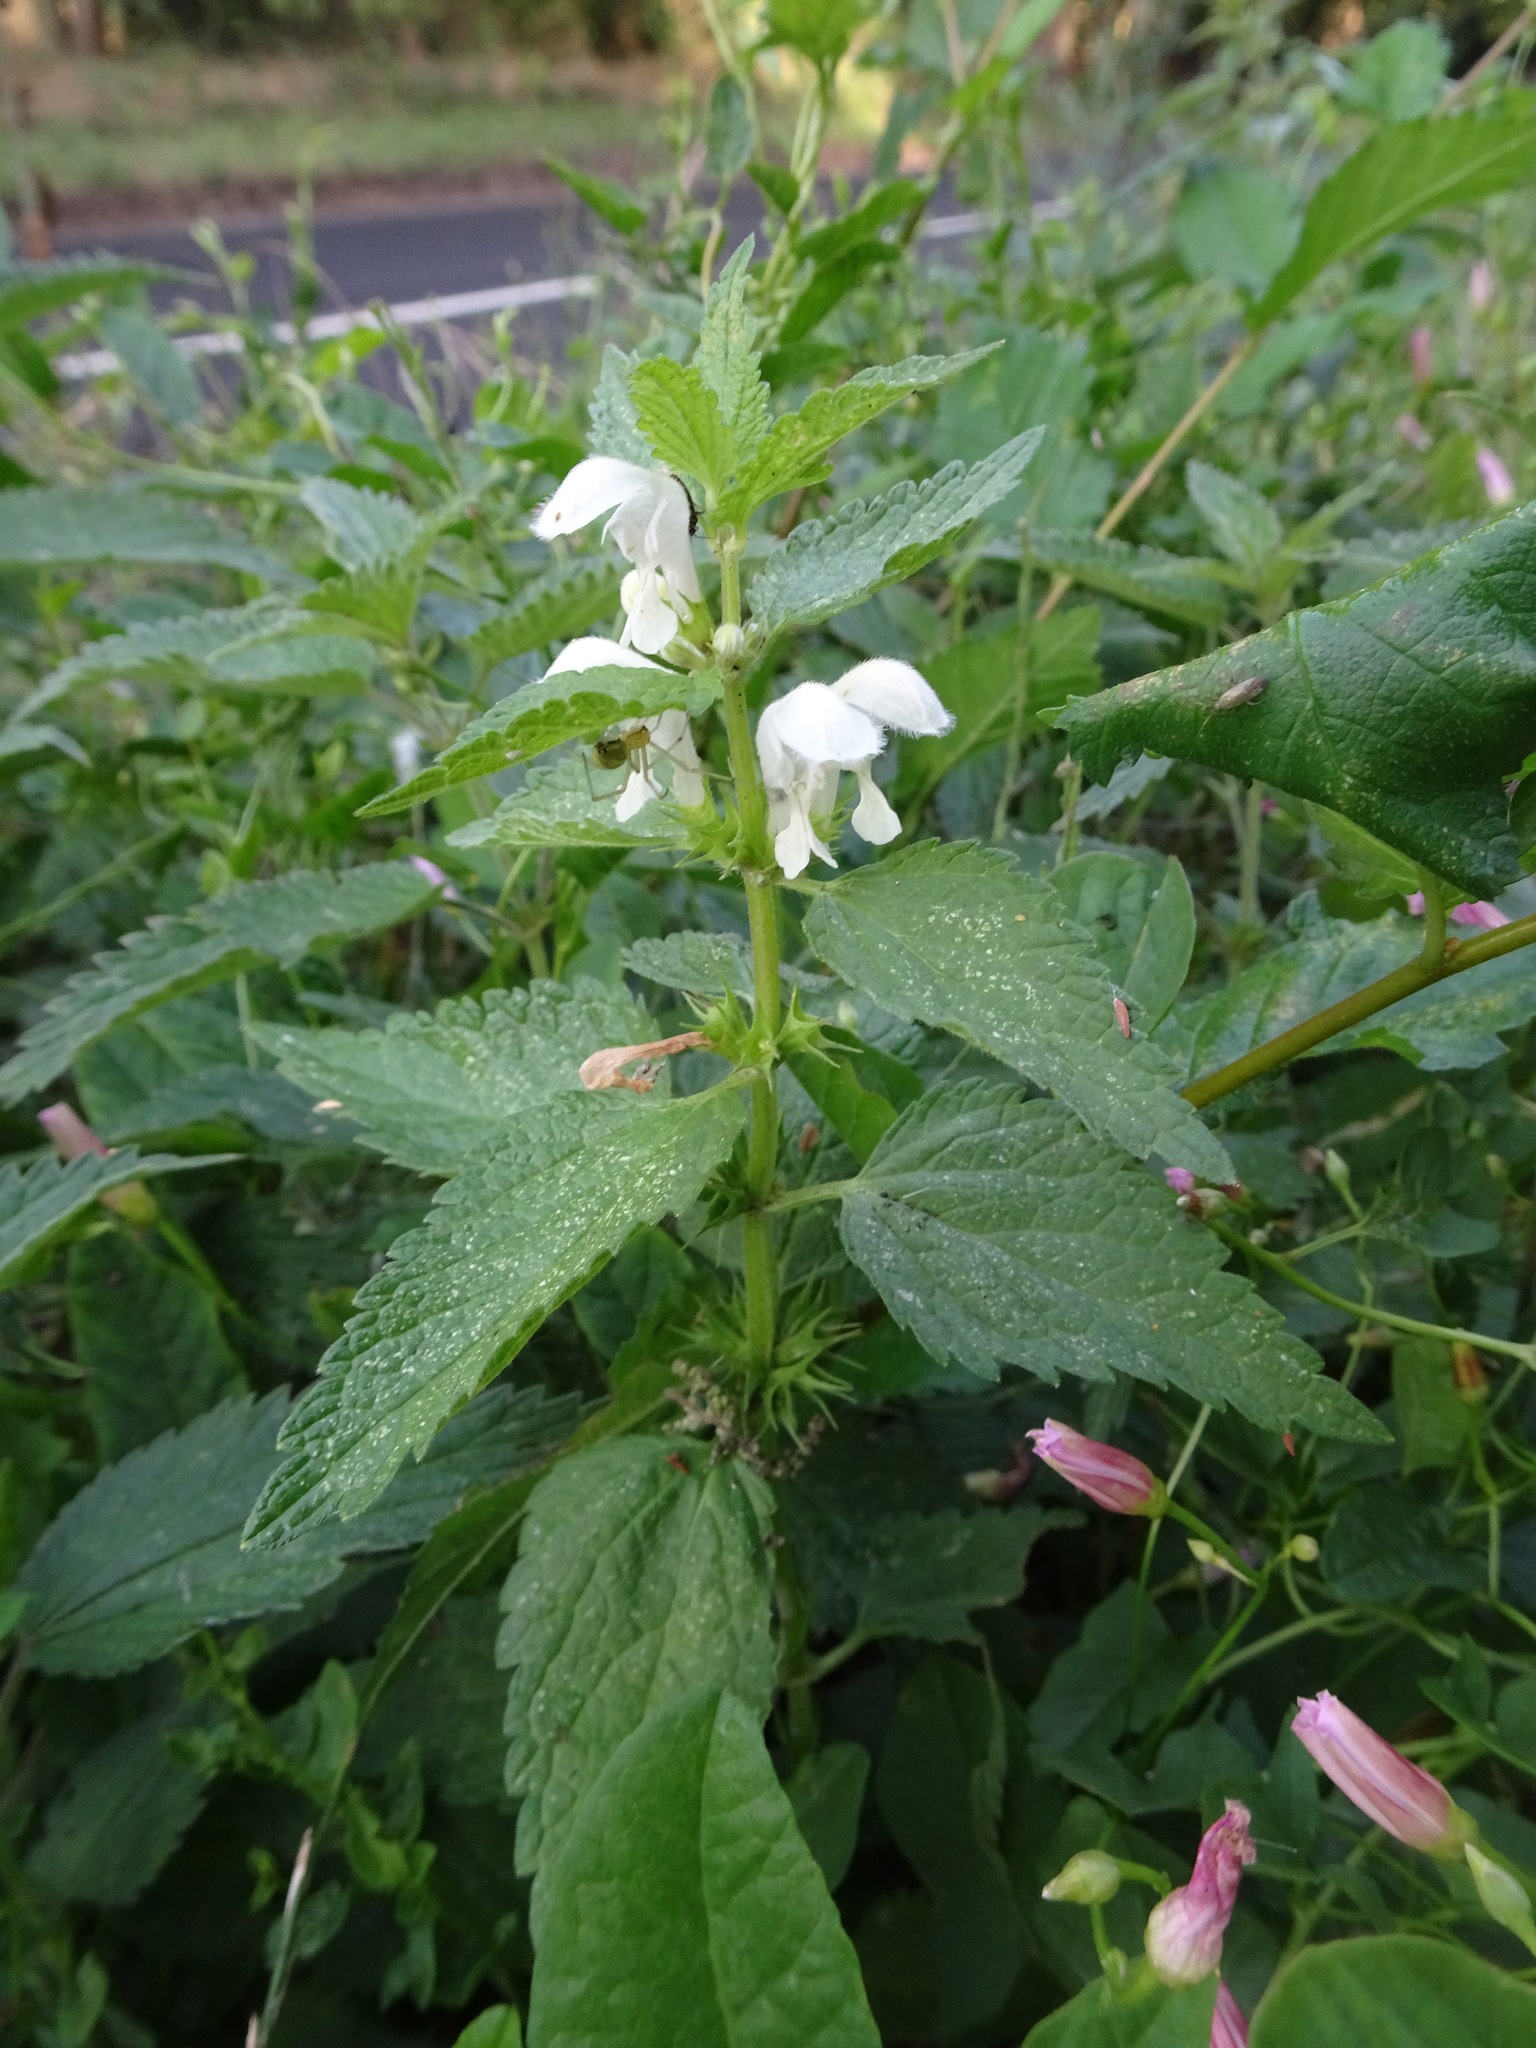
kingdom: Plantae
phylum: Tracheophyta
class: Magnoliopsida
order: Lamiales
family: Lamiaceae
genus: Lamium
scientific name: Lamium album
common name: White dead-nettle
